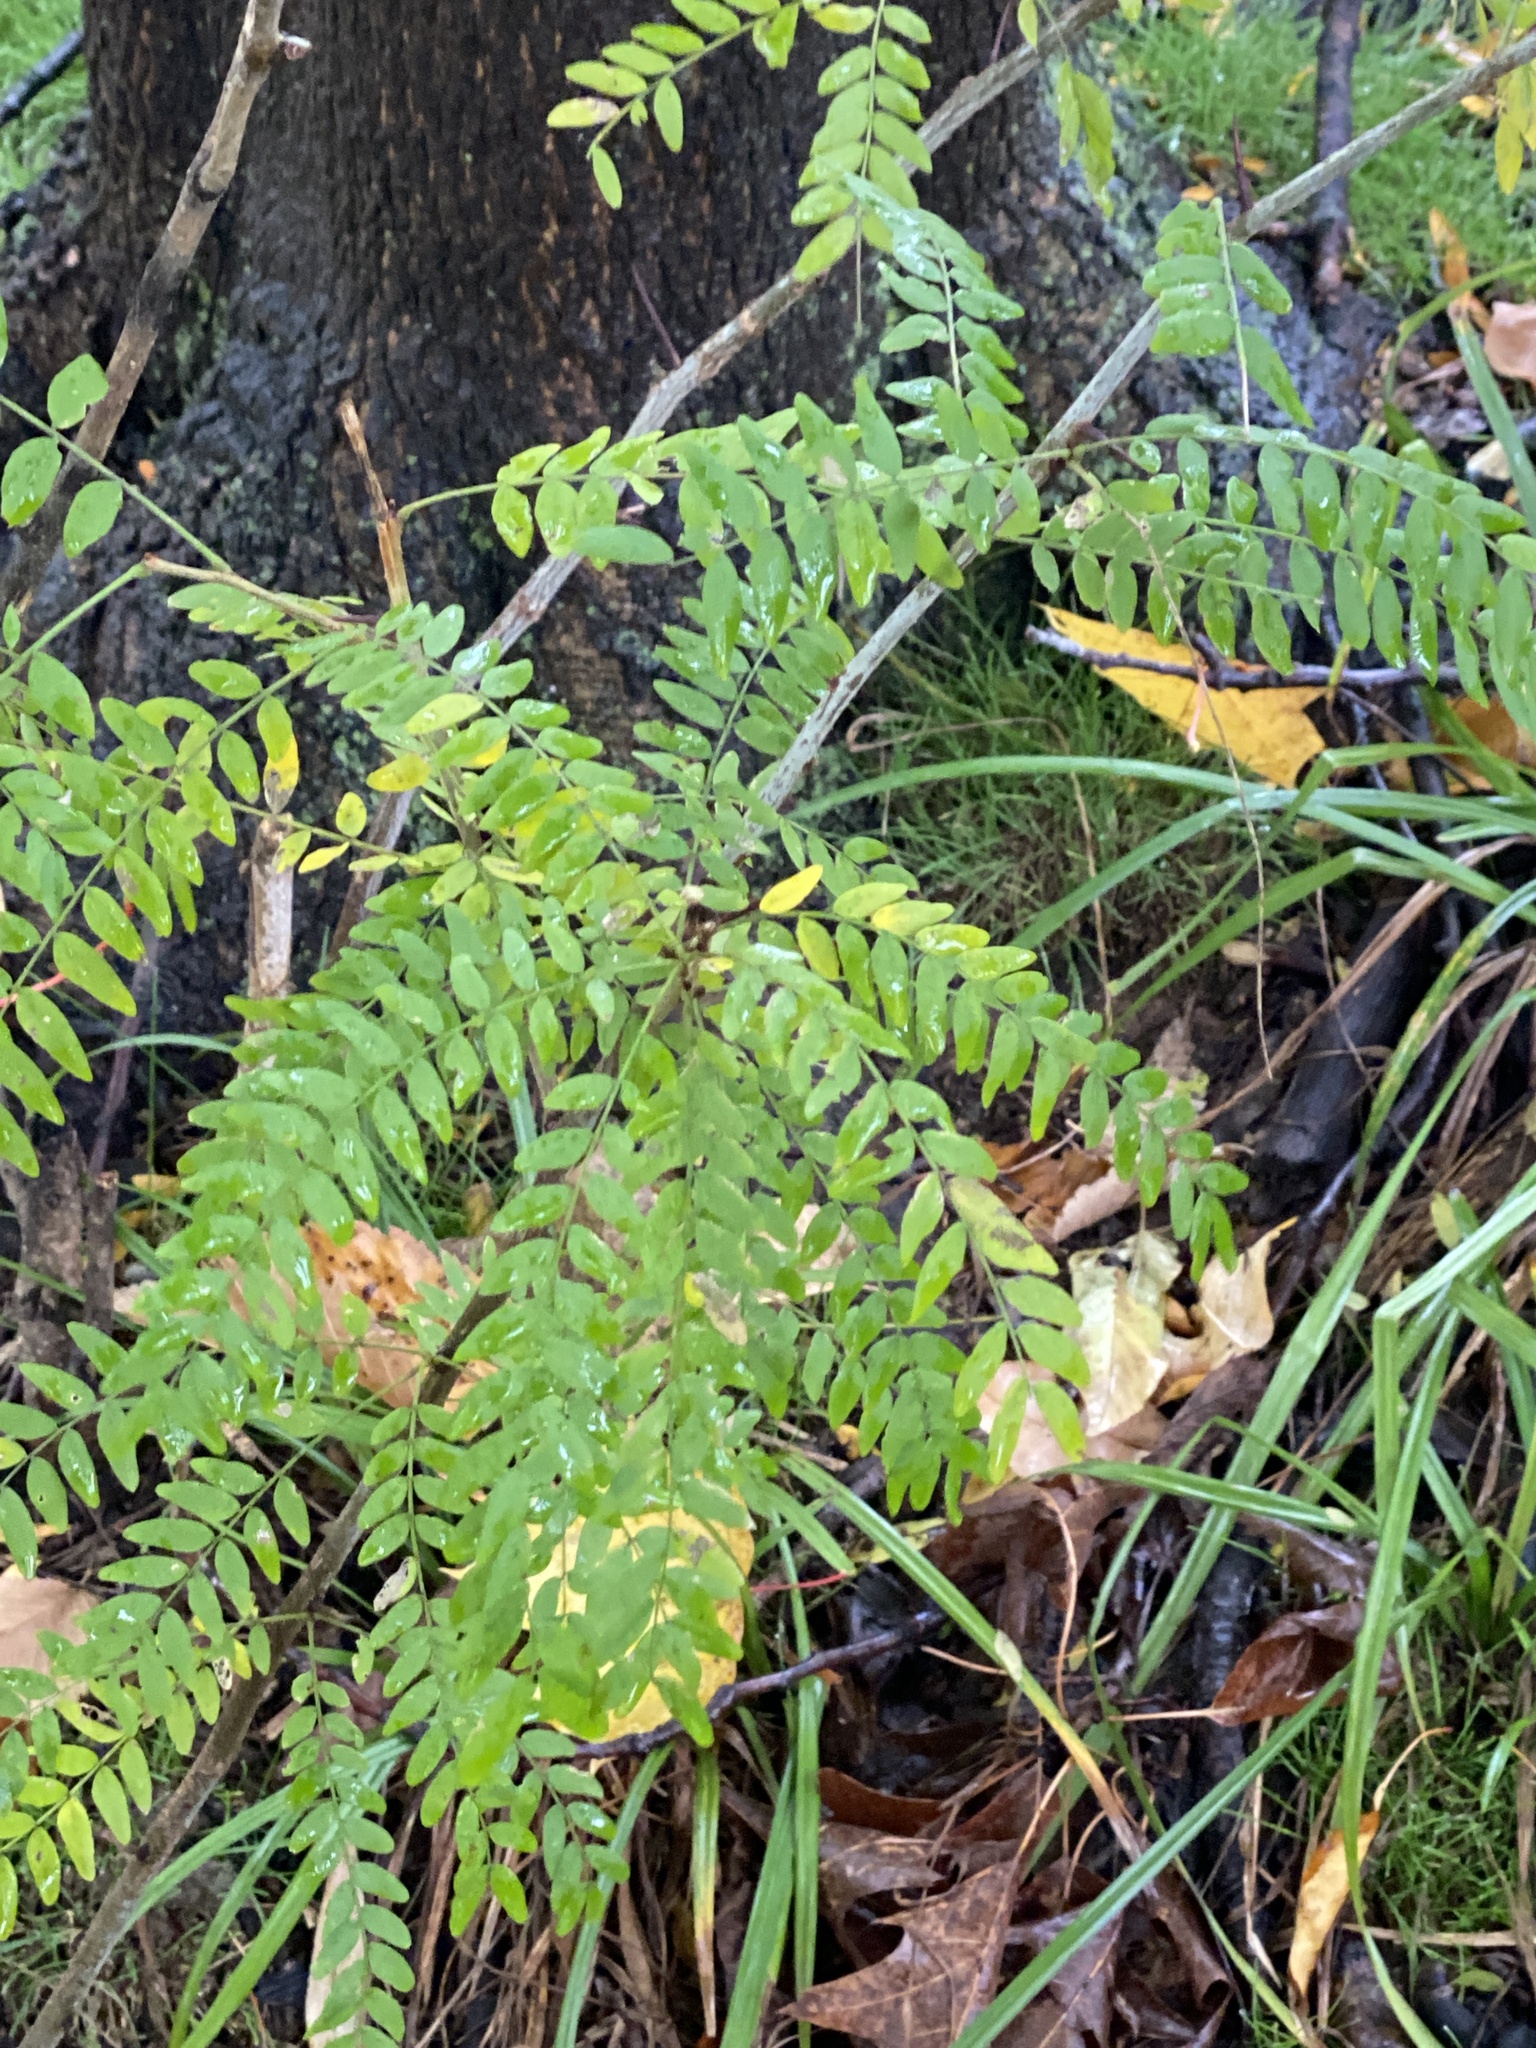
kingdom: Plantae
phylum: Tracheophyta
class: Magnoliopsida
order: Fabales
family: Fabaceae
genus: Gleditsia
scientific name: Gleditsia triacanthos
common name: Common honeylocust
